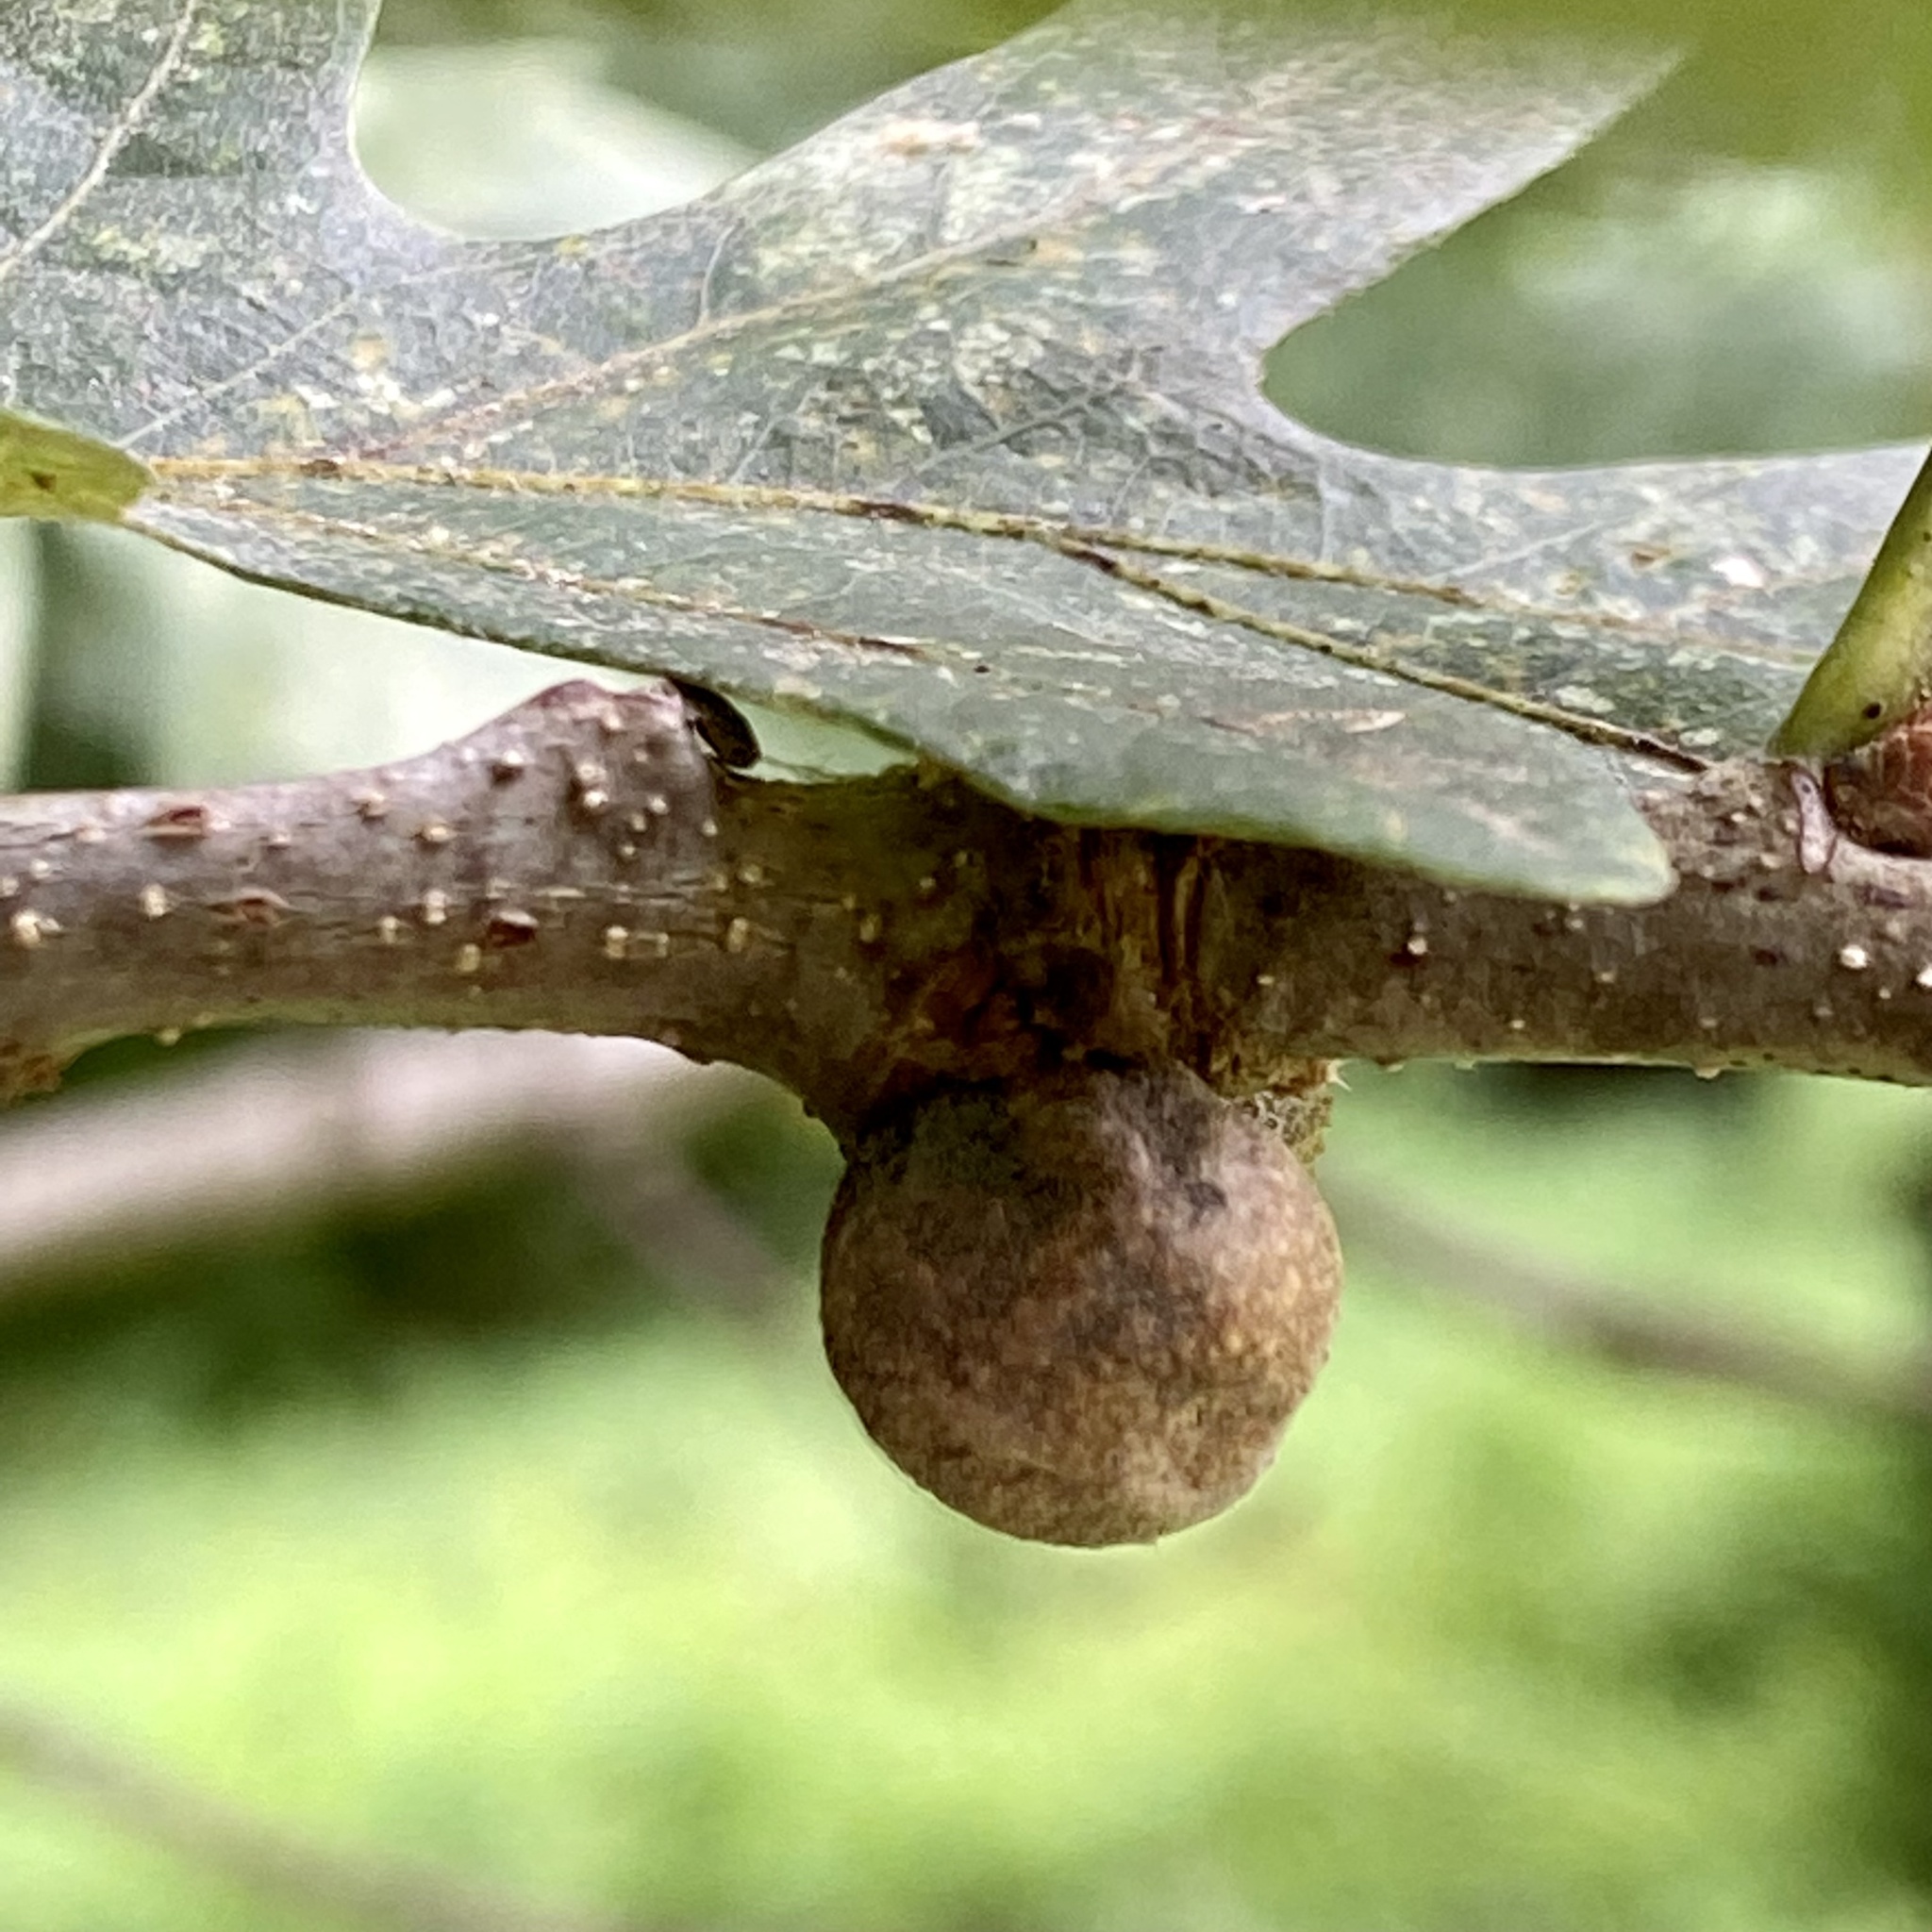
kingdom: Animalia
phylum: Arthropoda
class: Insecta
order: Hymenoptera
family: Cynipidae
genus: Disholcaspis
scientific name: Disholcaspis quercusglobulus
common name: Round bullet gall wasp
